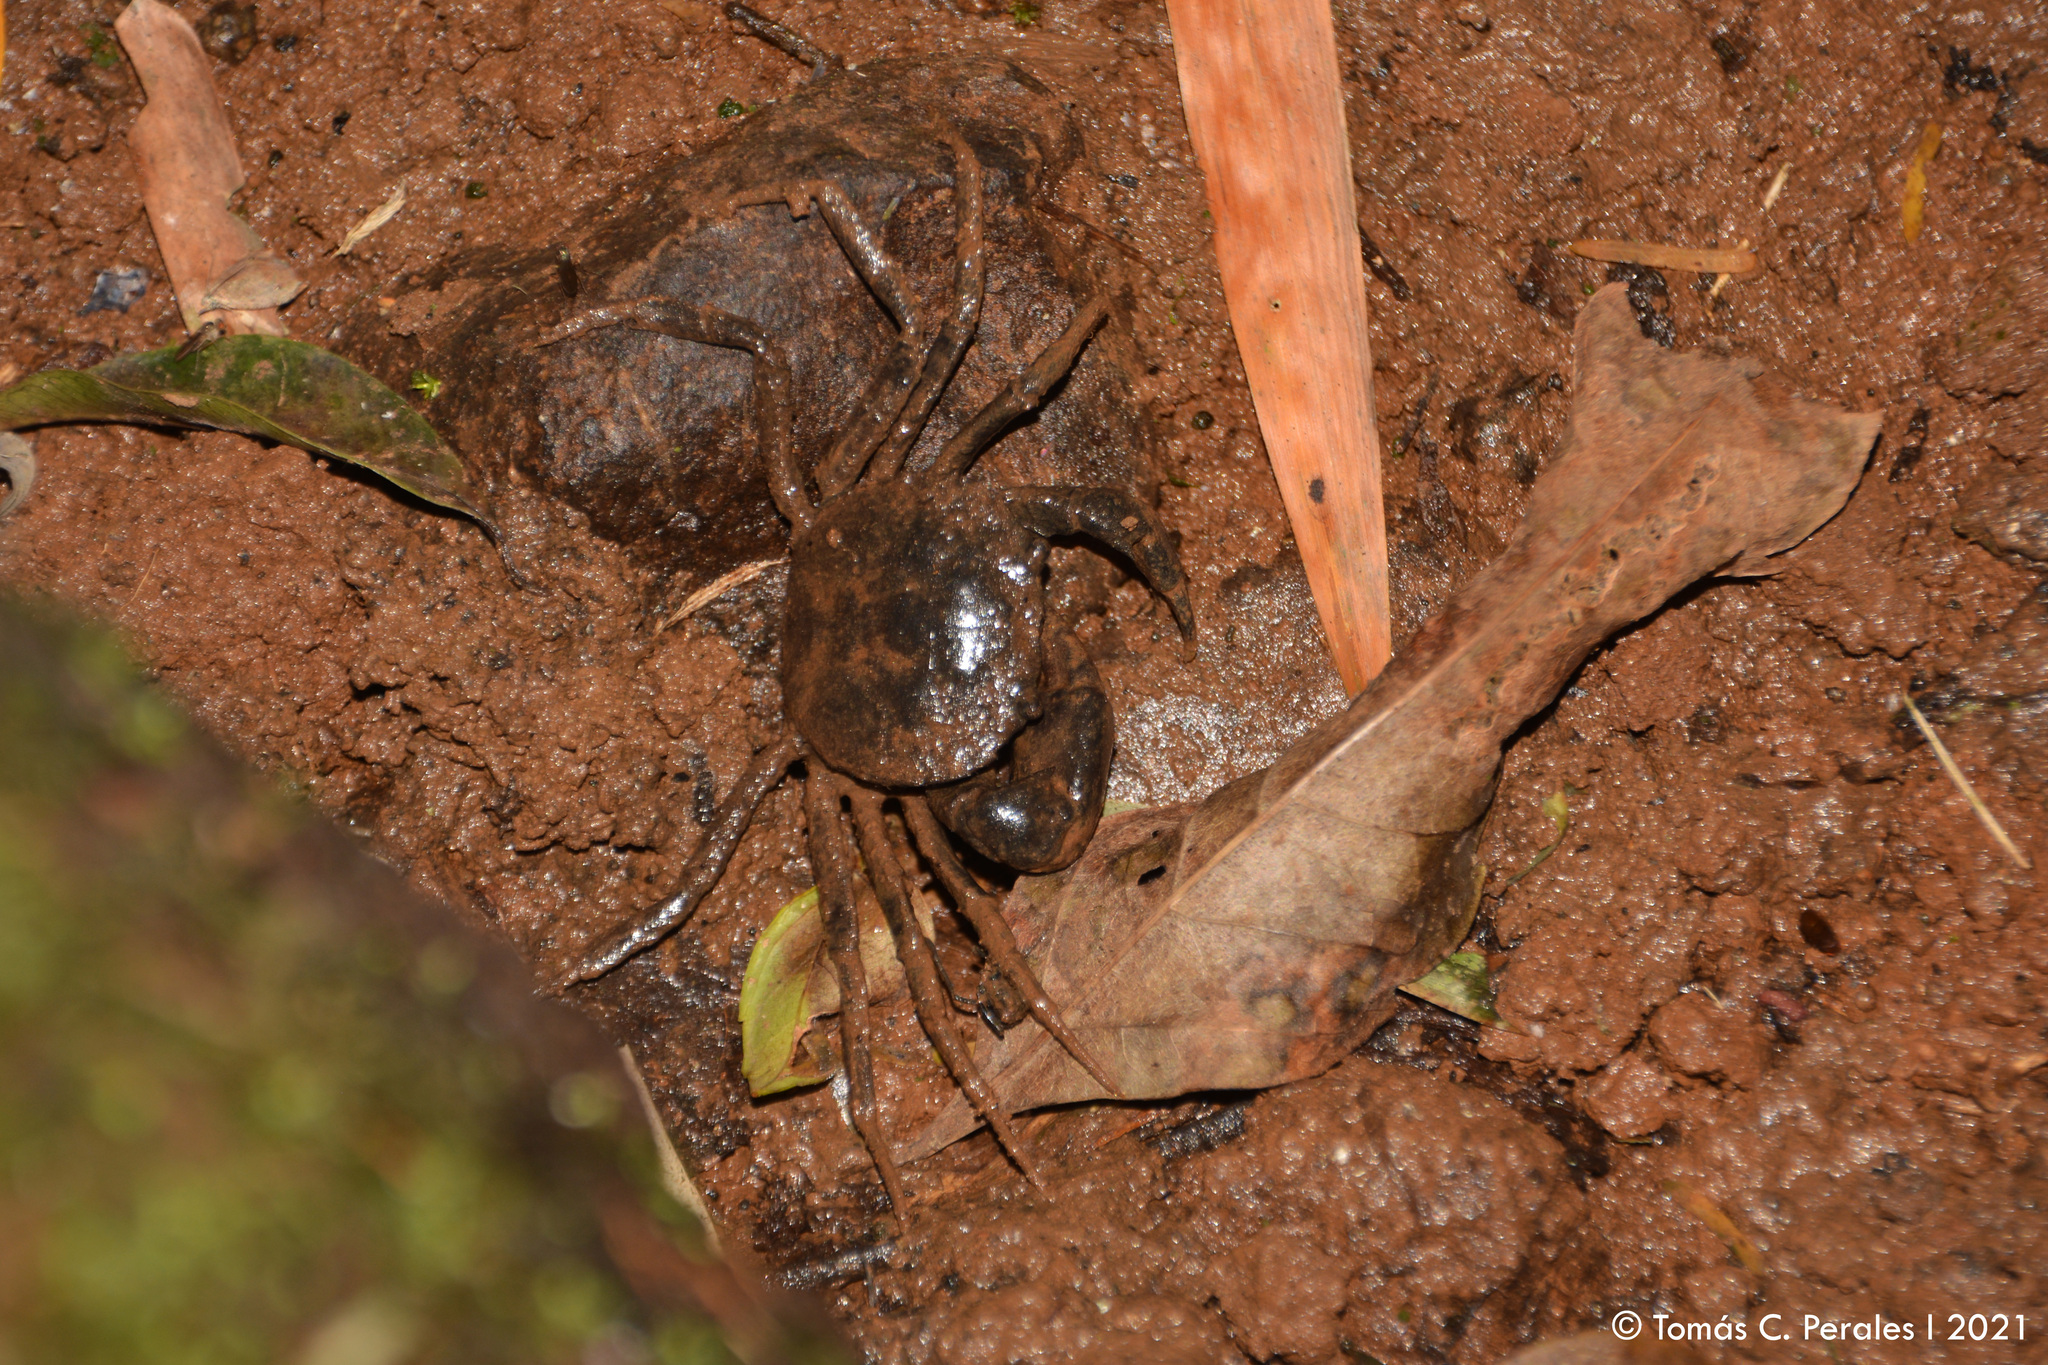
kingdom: Animalia
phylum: Arthropoda
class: Malacostraca
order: Decapoda
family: Trichodactylidae
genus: Trichodactylus
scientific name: Trichodactylus kensleyi
